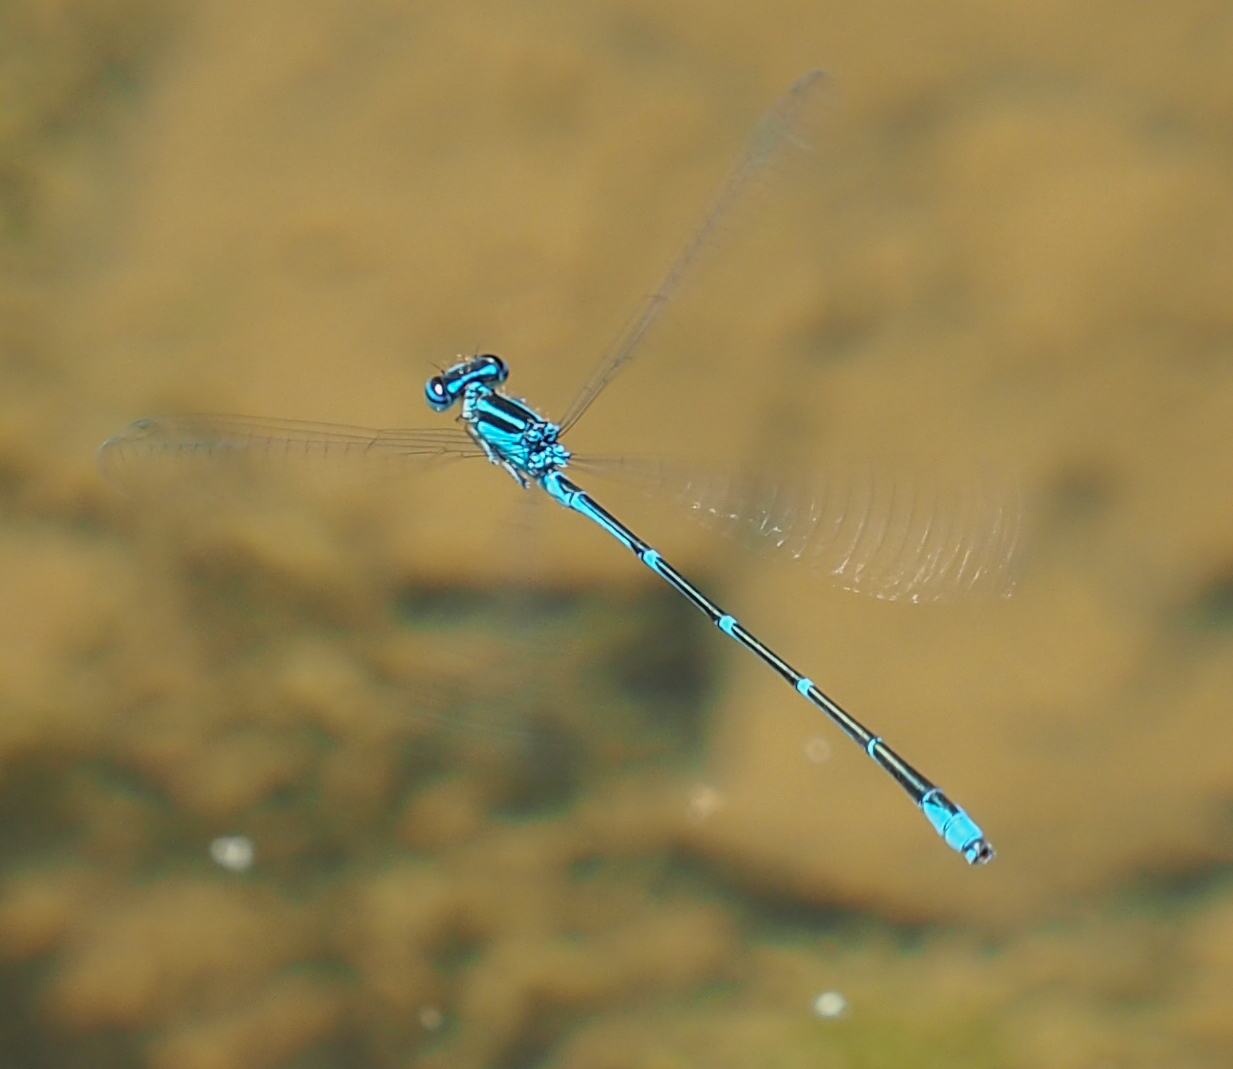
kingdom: Animalia
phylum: Arthropoda
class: Insecta
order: Odonata
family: Coenagrionidae
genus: Enallagma
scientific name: Enallagma exsulans
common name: Stream bluet
